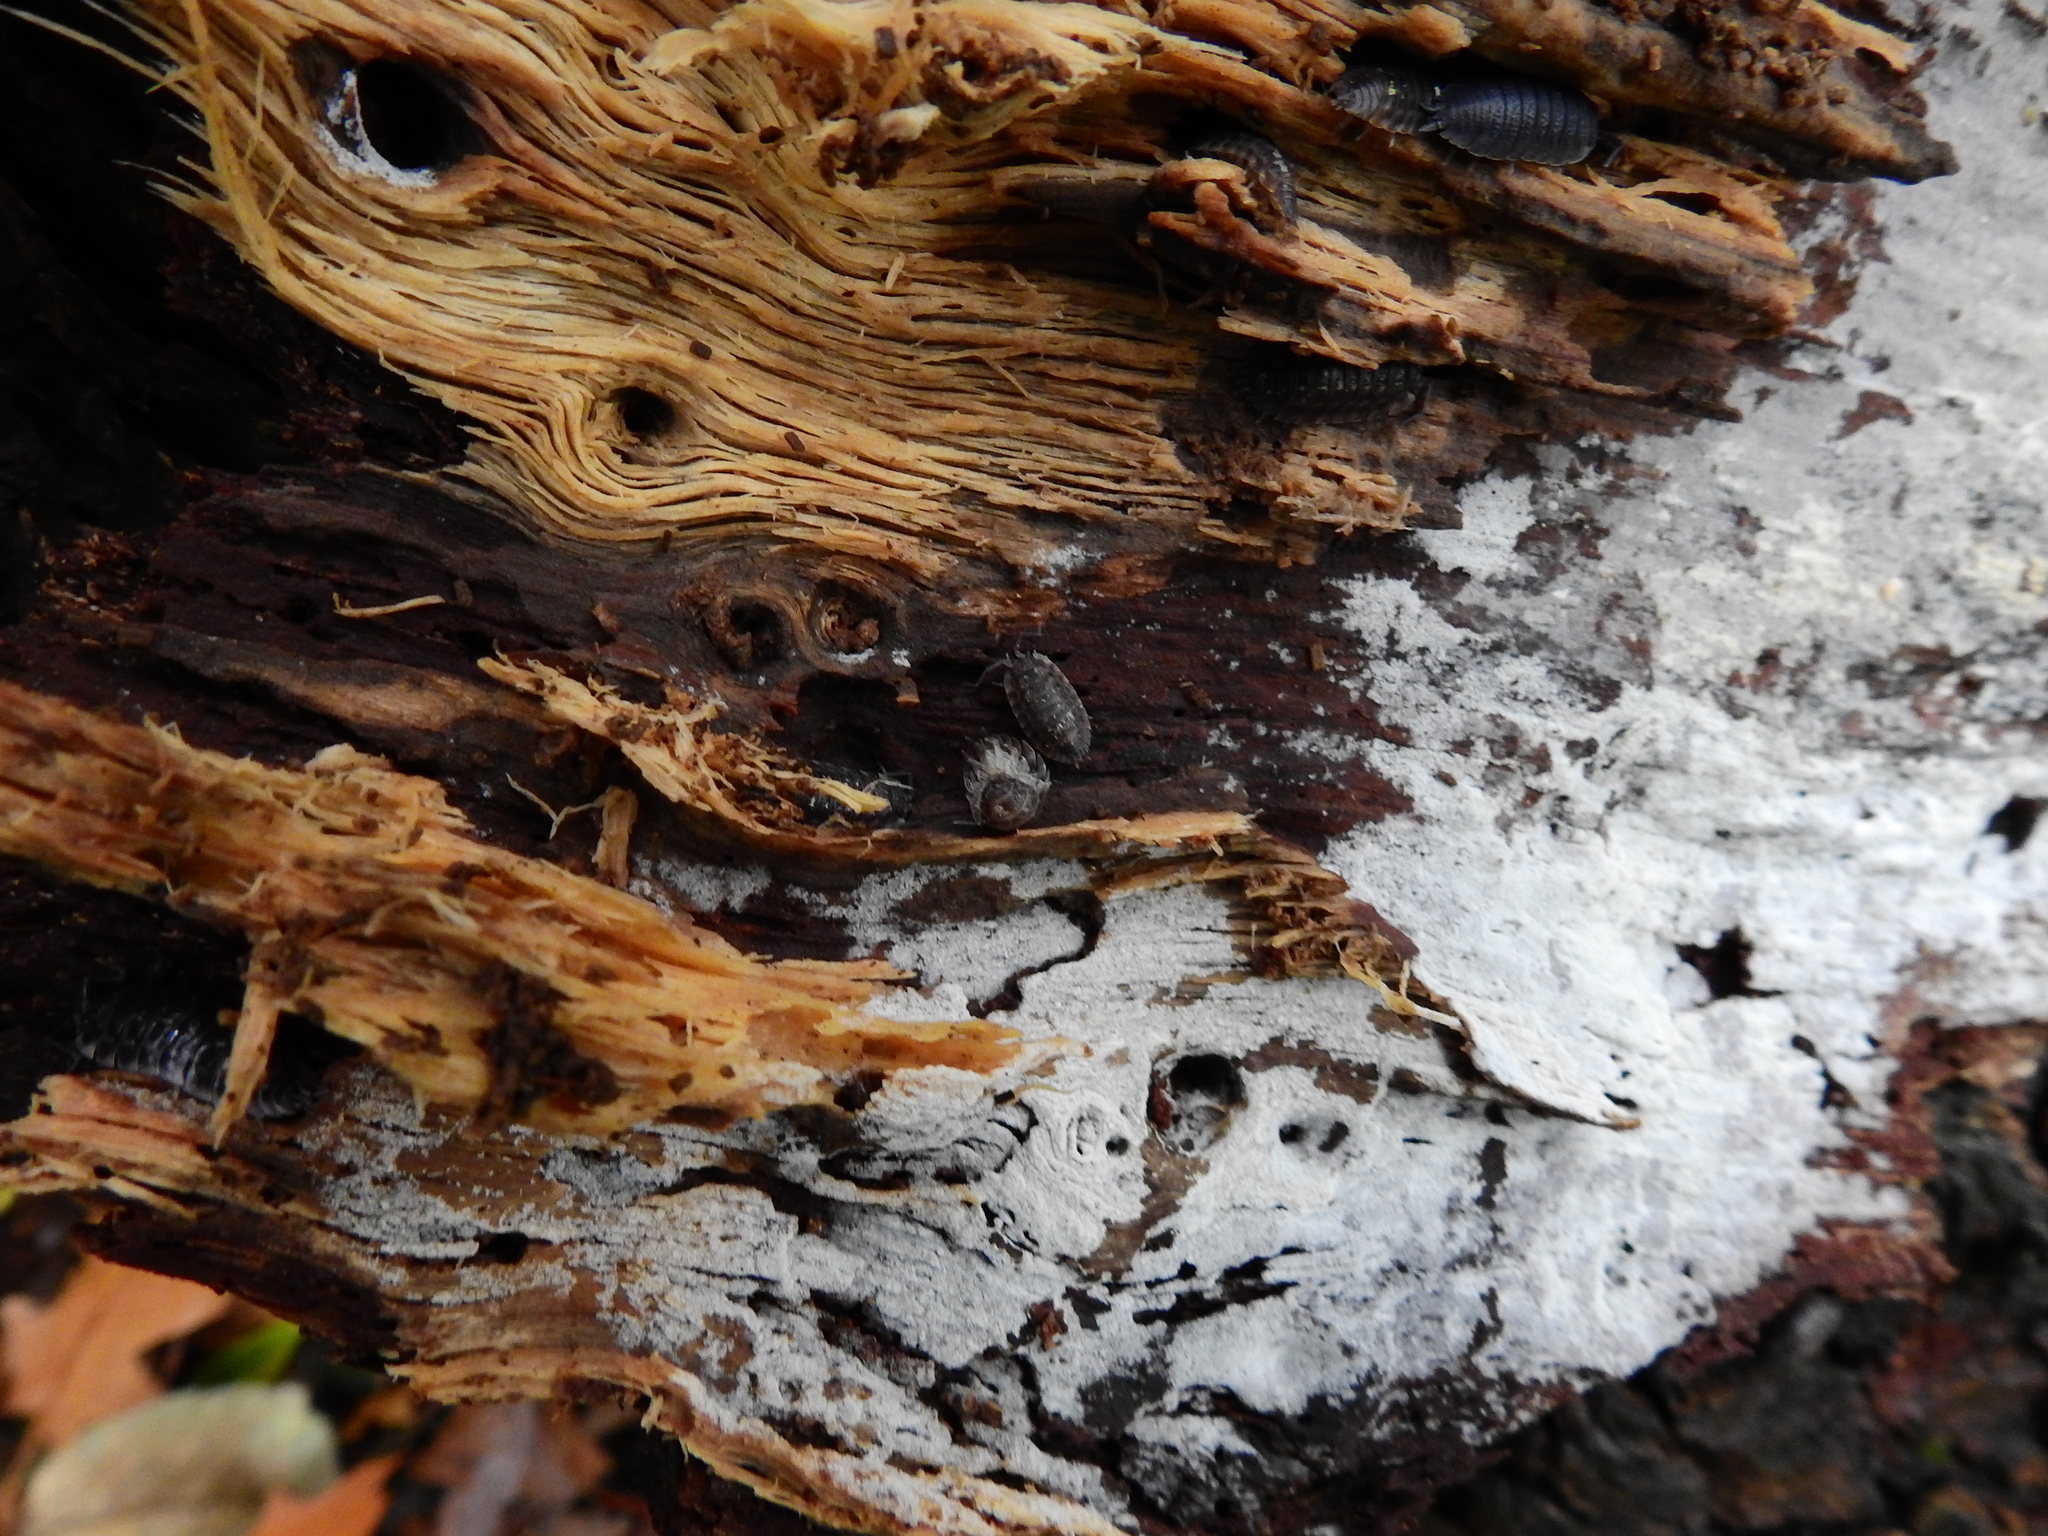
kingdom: Animalia
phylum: Arthropoda
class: Malacostraca
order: Isopoda
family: Oniscidae
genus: Oniscus
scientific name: Oniscus asellus
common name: Common shiny woodlouse
